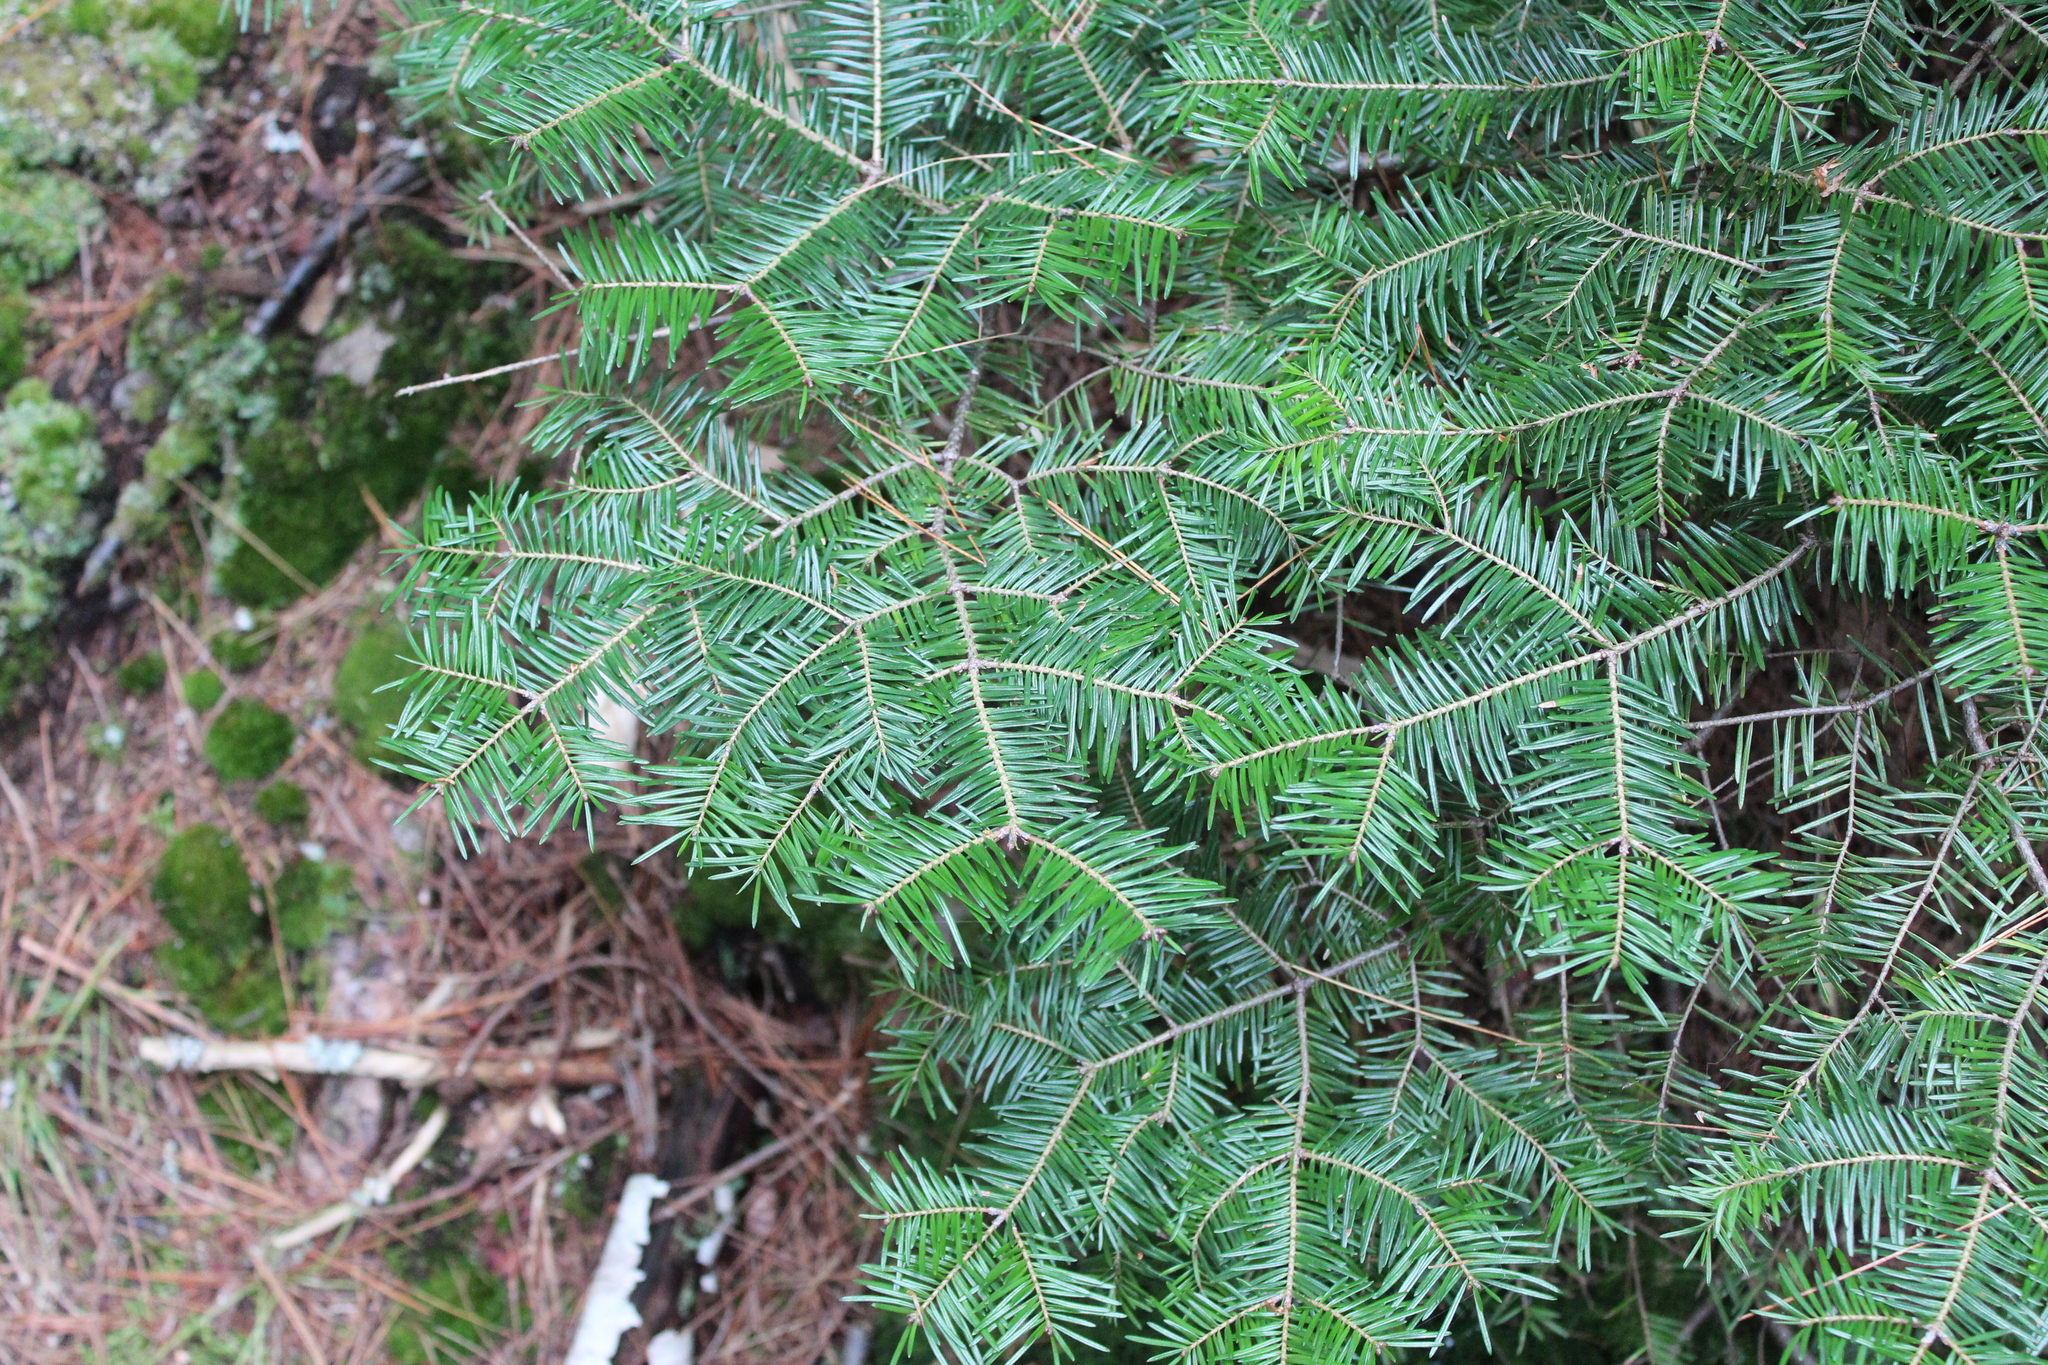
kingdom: Plantae
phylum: Tracheophyta
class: Pinopsida
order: Pinales
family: Pinaceae
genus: Abies
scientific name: Abies balsamea
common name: Balsam fir
